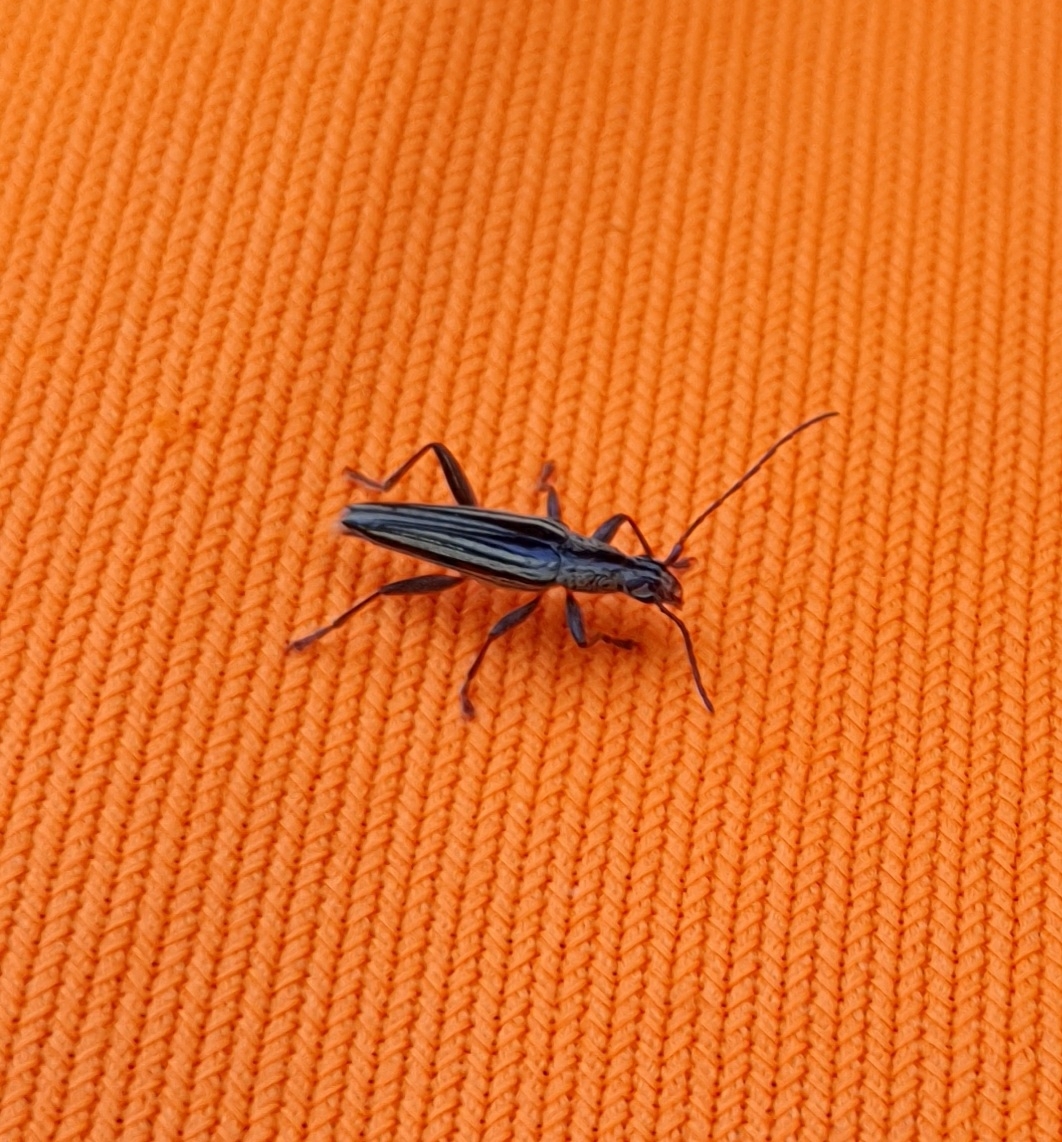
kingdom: Animalia
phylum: Arthropoda
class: Insecta
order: Coleoptera
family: Cerambycidae
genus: Coptomma
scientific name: Coptomma sulcatum
